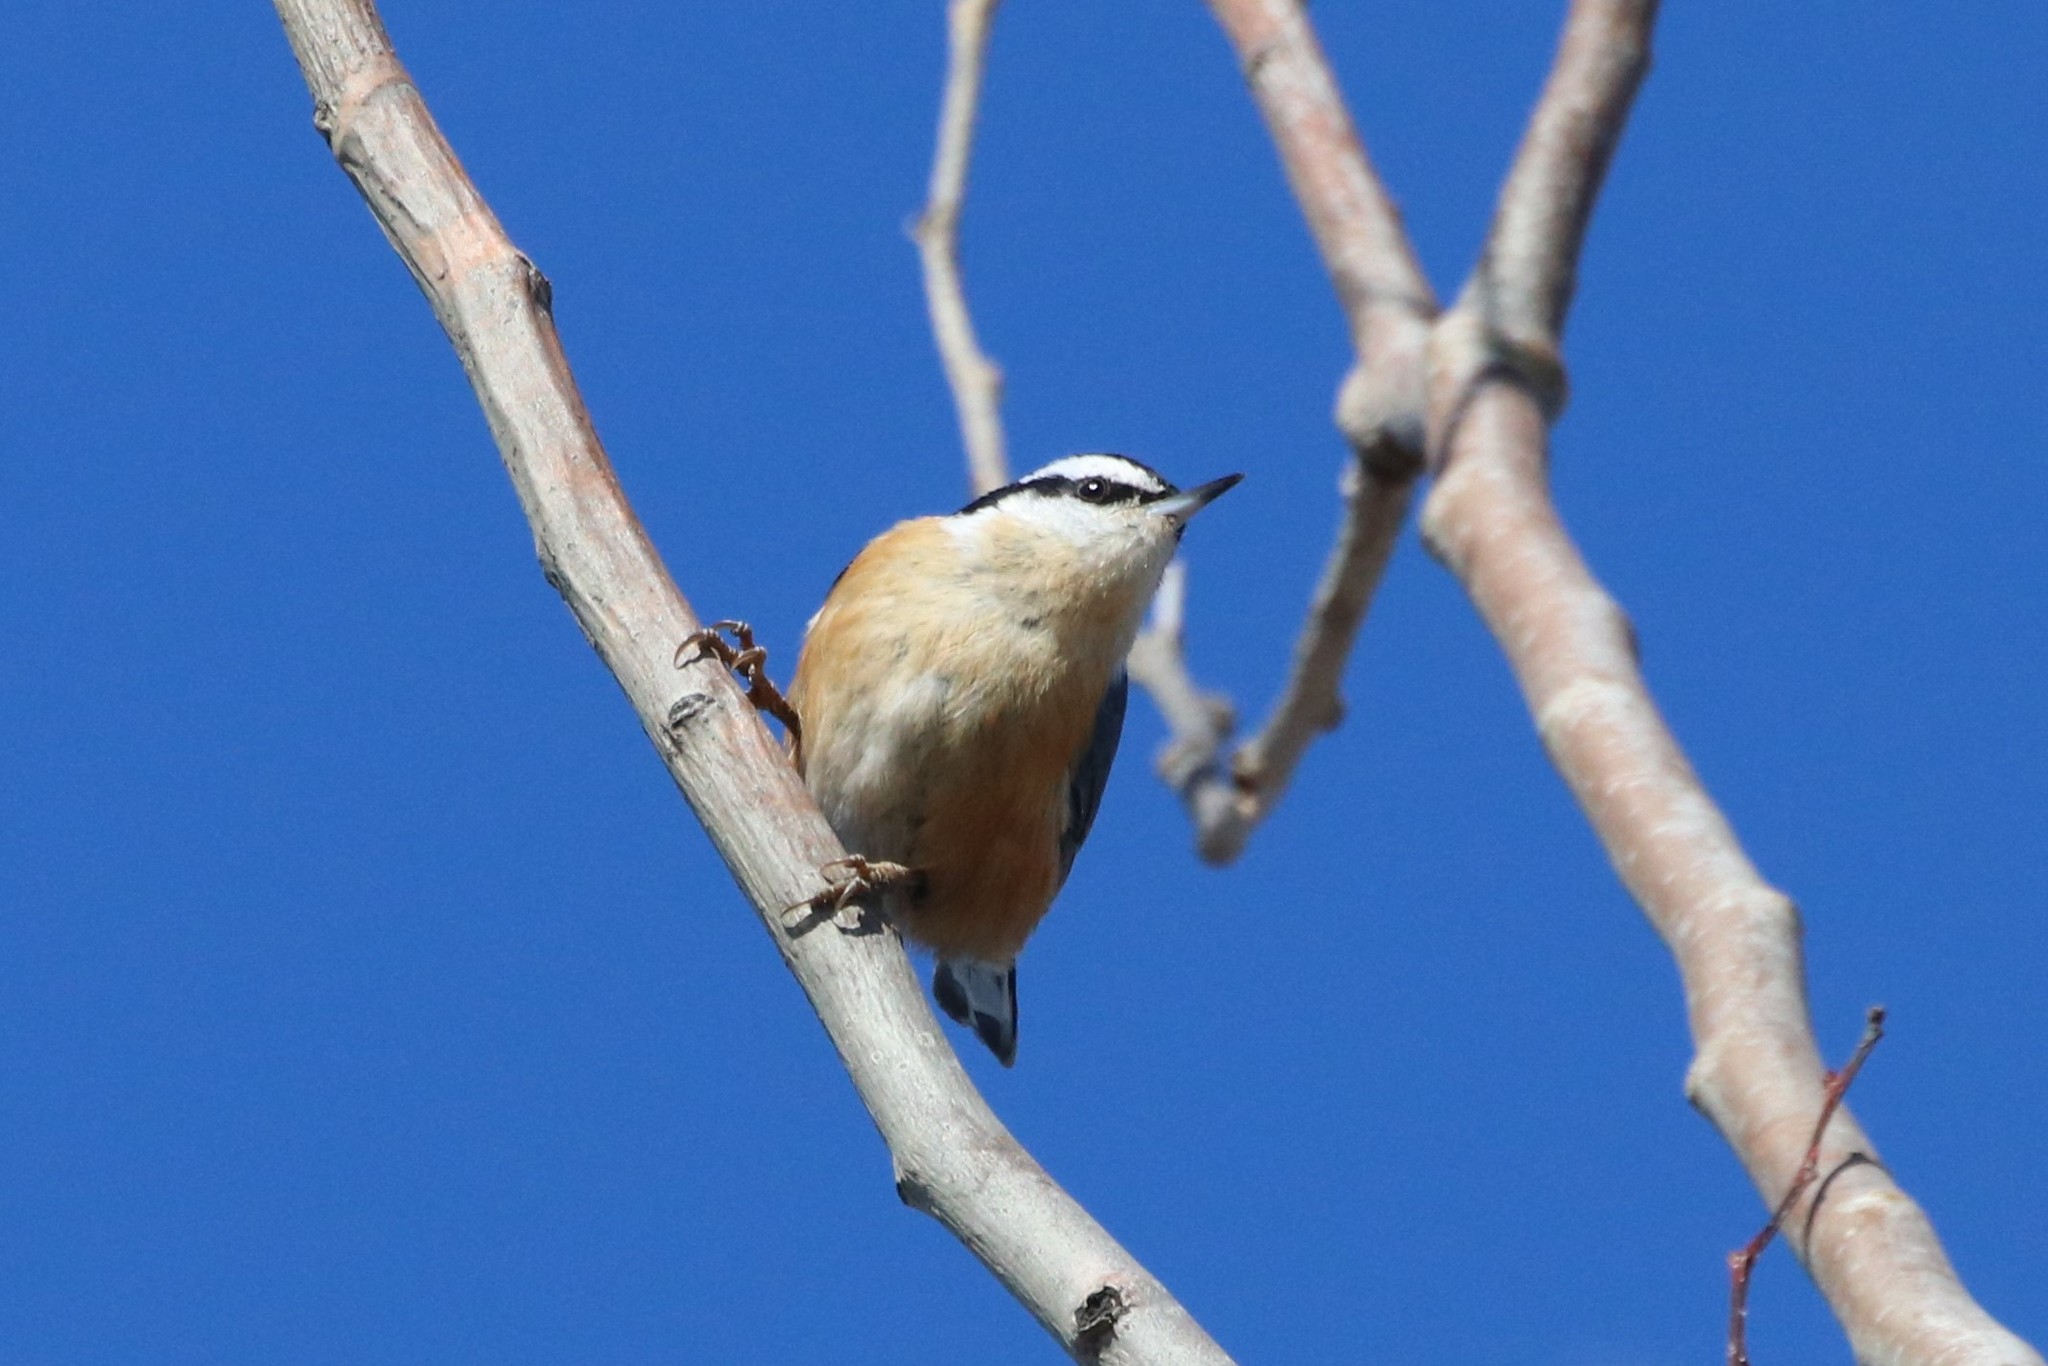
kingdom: Animalia
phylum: Chordata
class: Aves
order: Passeriformes
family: Sittidae
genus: Sitta
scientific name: Sitta canadensis
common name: Red-breasted nuthatch
